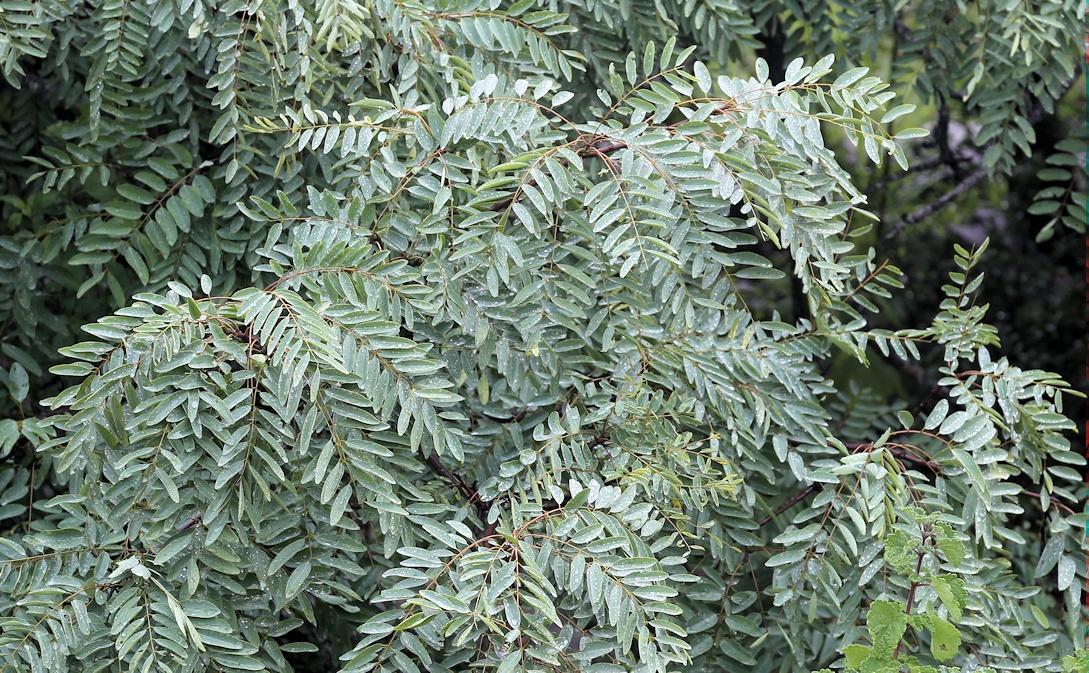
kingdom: Plantae
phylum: Tracheophyta
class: Magnoliopsida
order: Fabales
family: Fabaceae
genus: Cassia
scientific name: Cassia abbreviata
